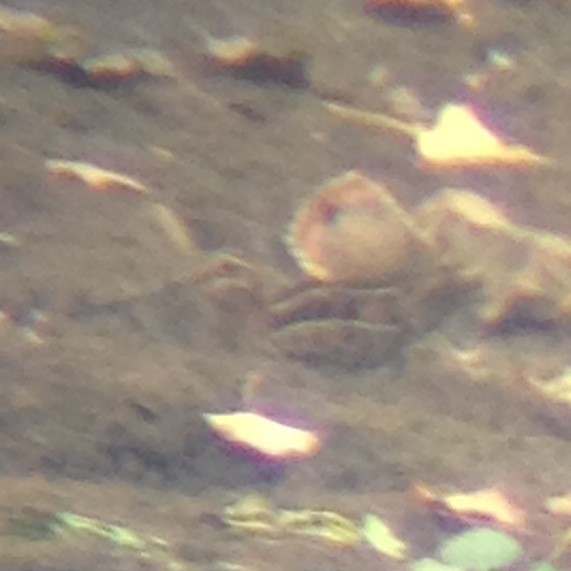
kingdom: Animalia
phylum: Chordata
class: Aves
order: Charadriiformes
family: Scolopacidae
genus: Gallinago
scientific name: Gallinago delicata
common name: Wilson's snipe
